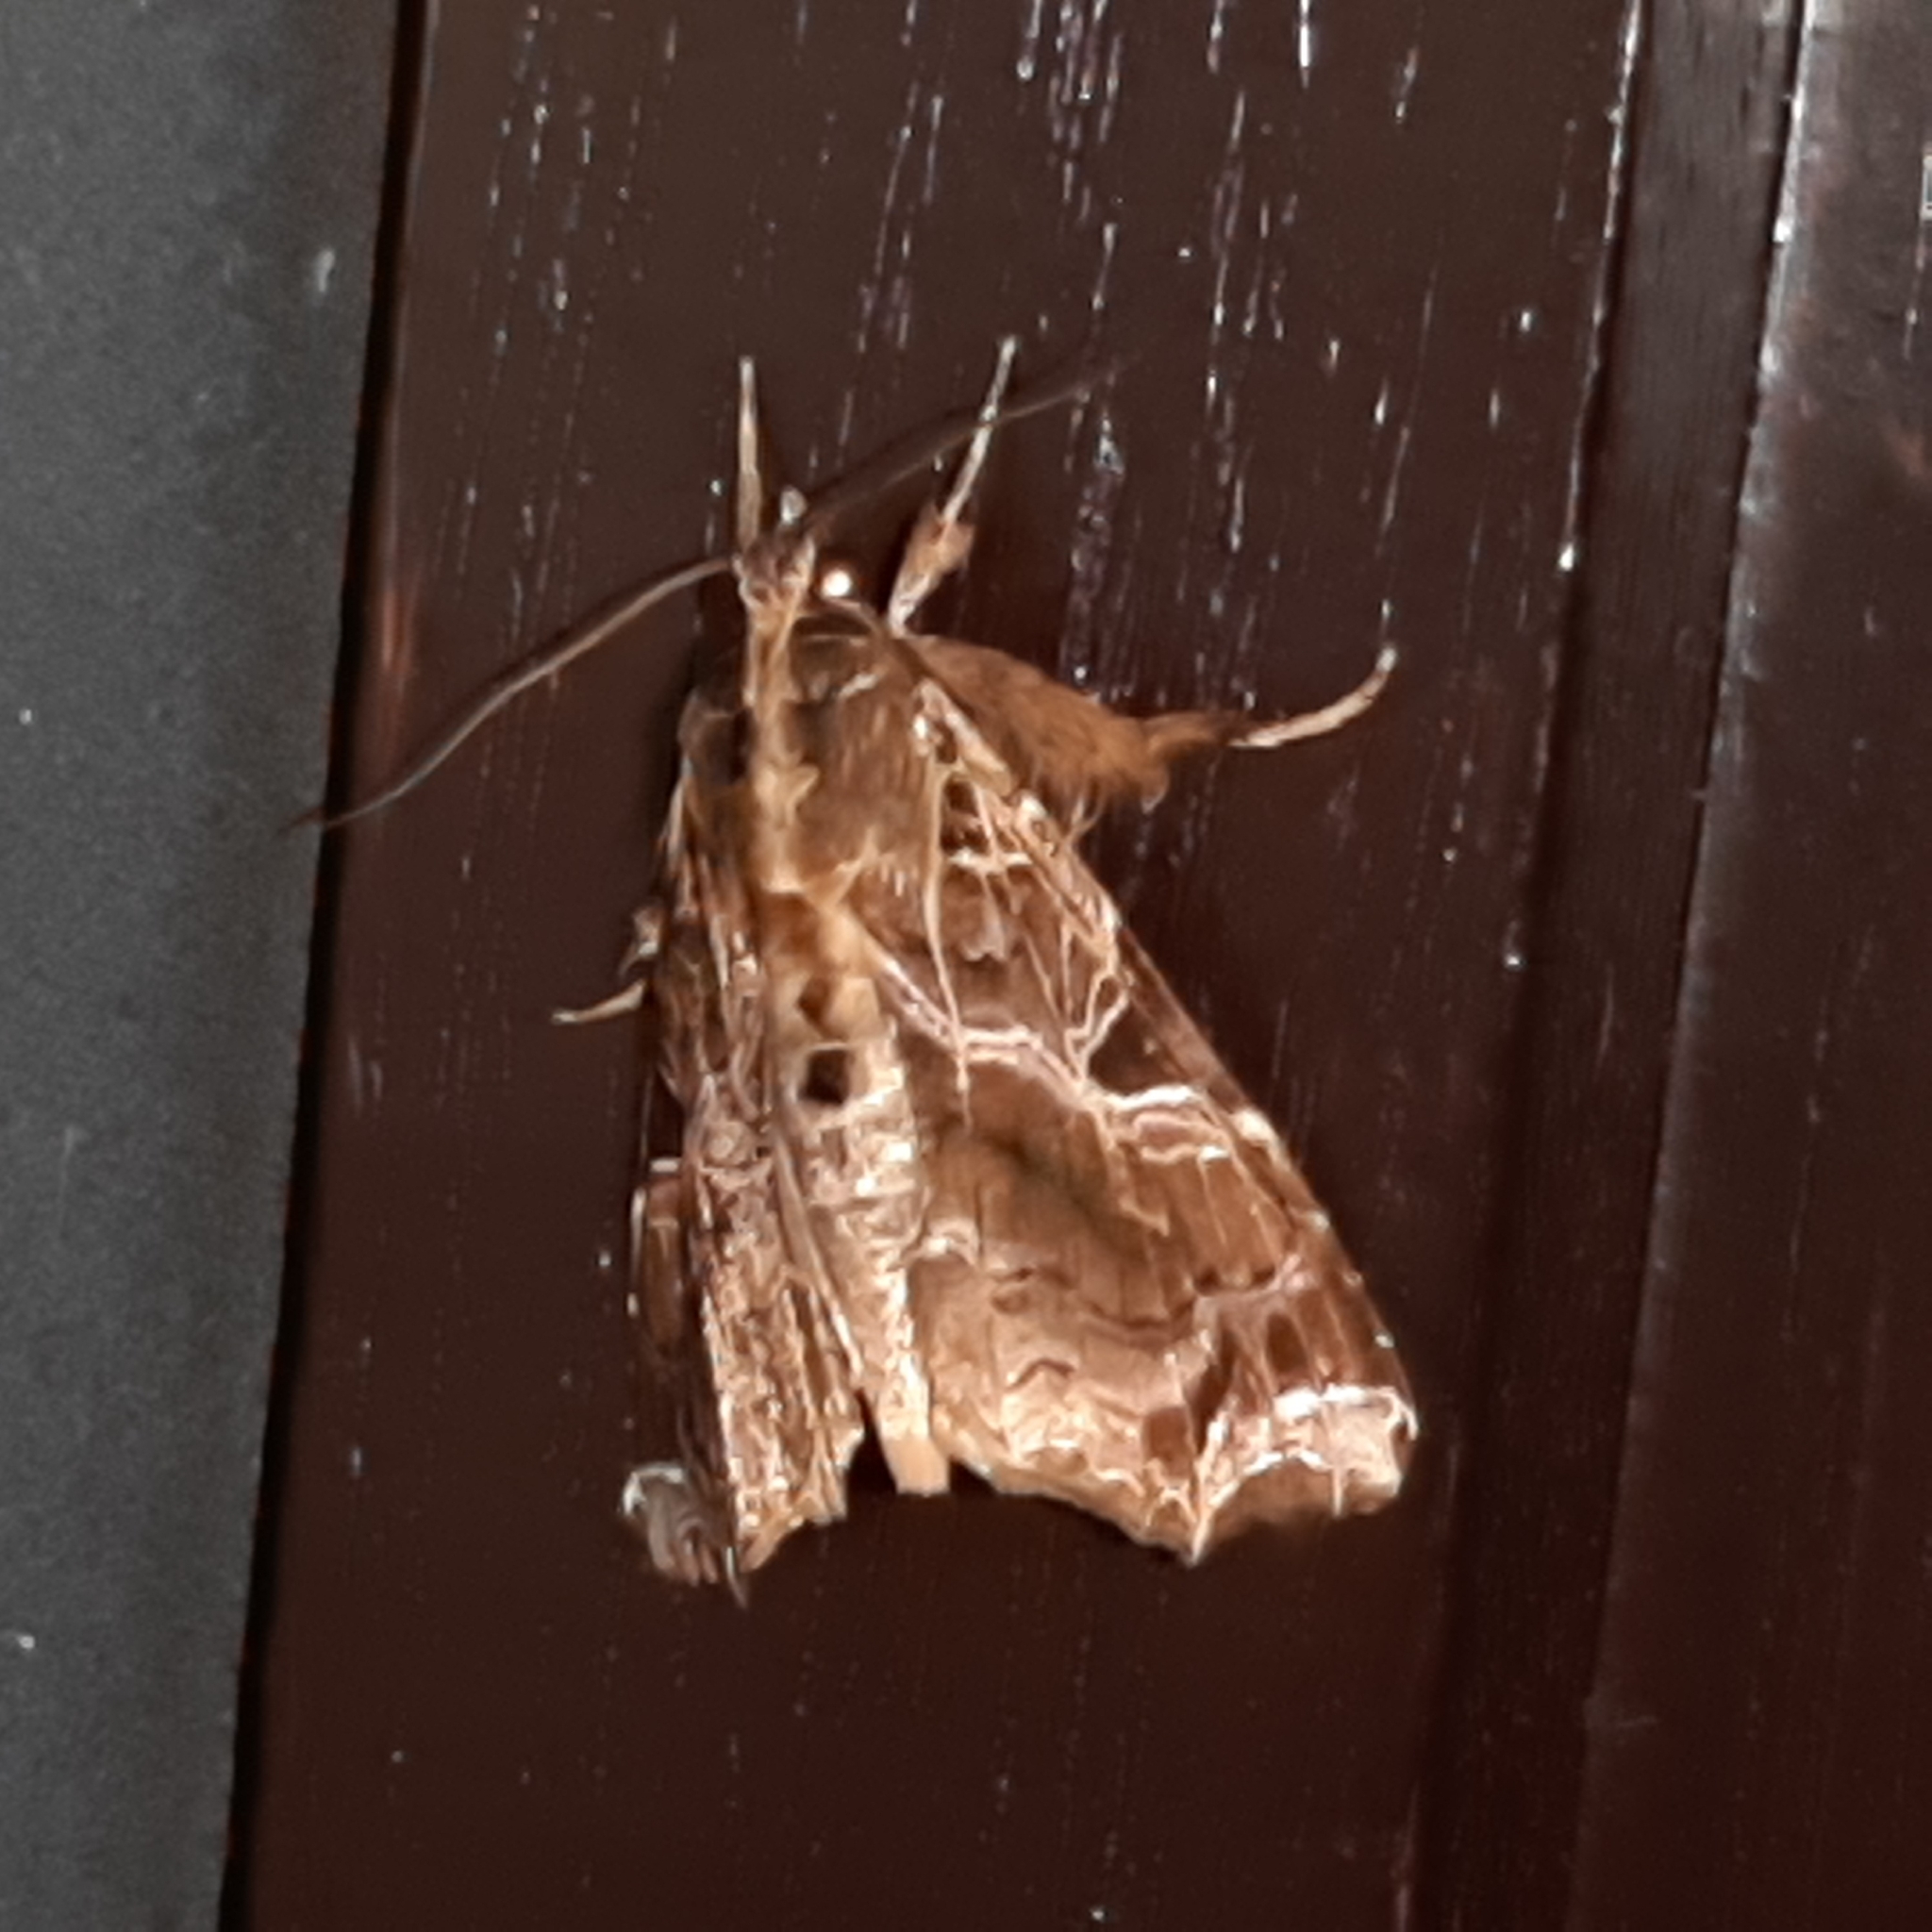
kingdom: Animalia
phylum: Arthropoda
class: Insecta
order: Lepidoptera
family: Noctuidae
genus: Callopistria
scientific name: Callopistria floridensis
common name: Florida fern moth
